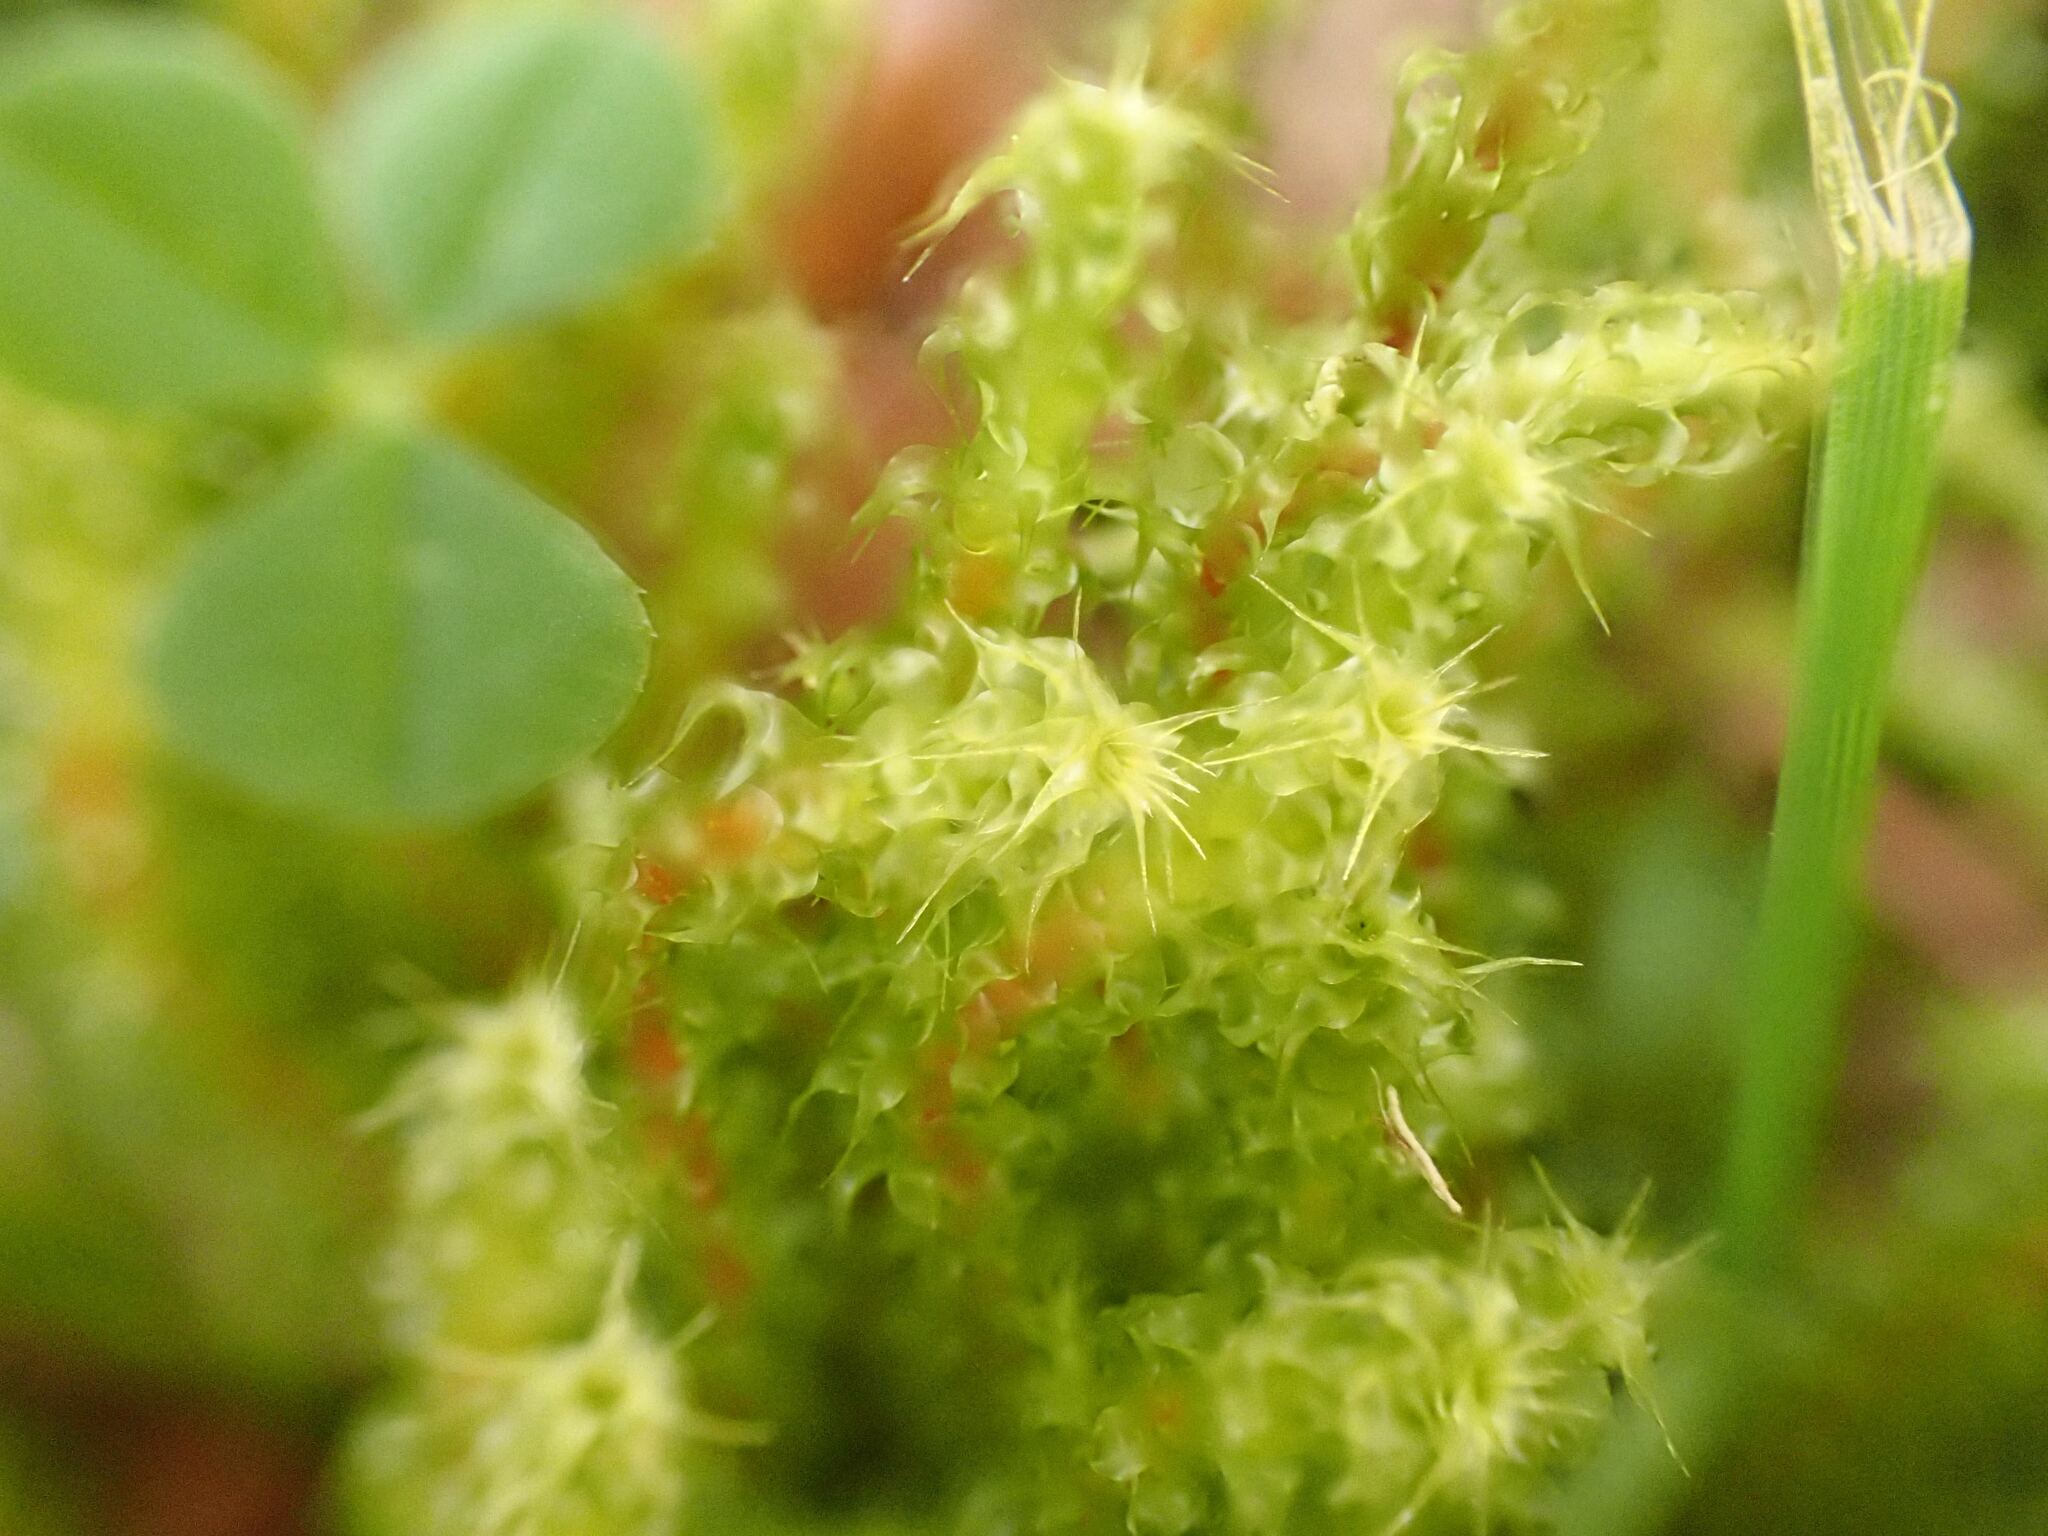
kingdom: Plantae
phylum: Bryophyta
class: Bryopsida
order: Hypnales
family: Hylocomiaceae
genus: Rhytidiadelphus
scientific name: Rhytidiadelphus squarrosus
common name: Springy turf-moss
